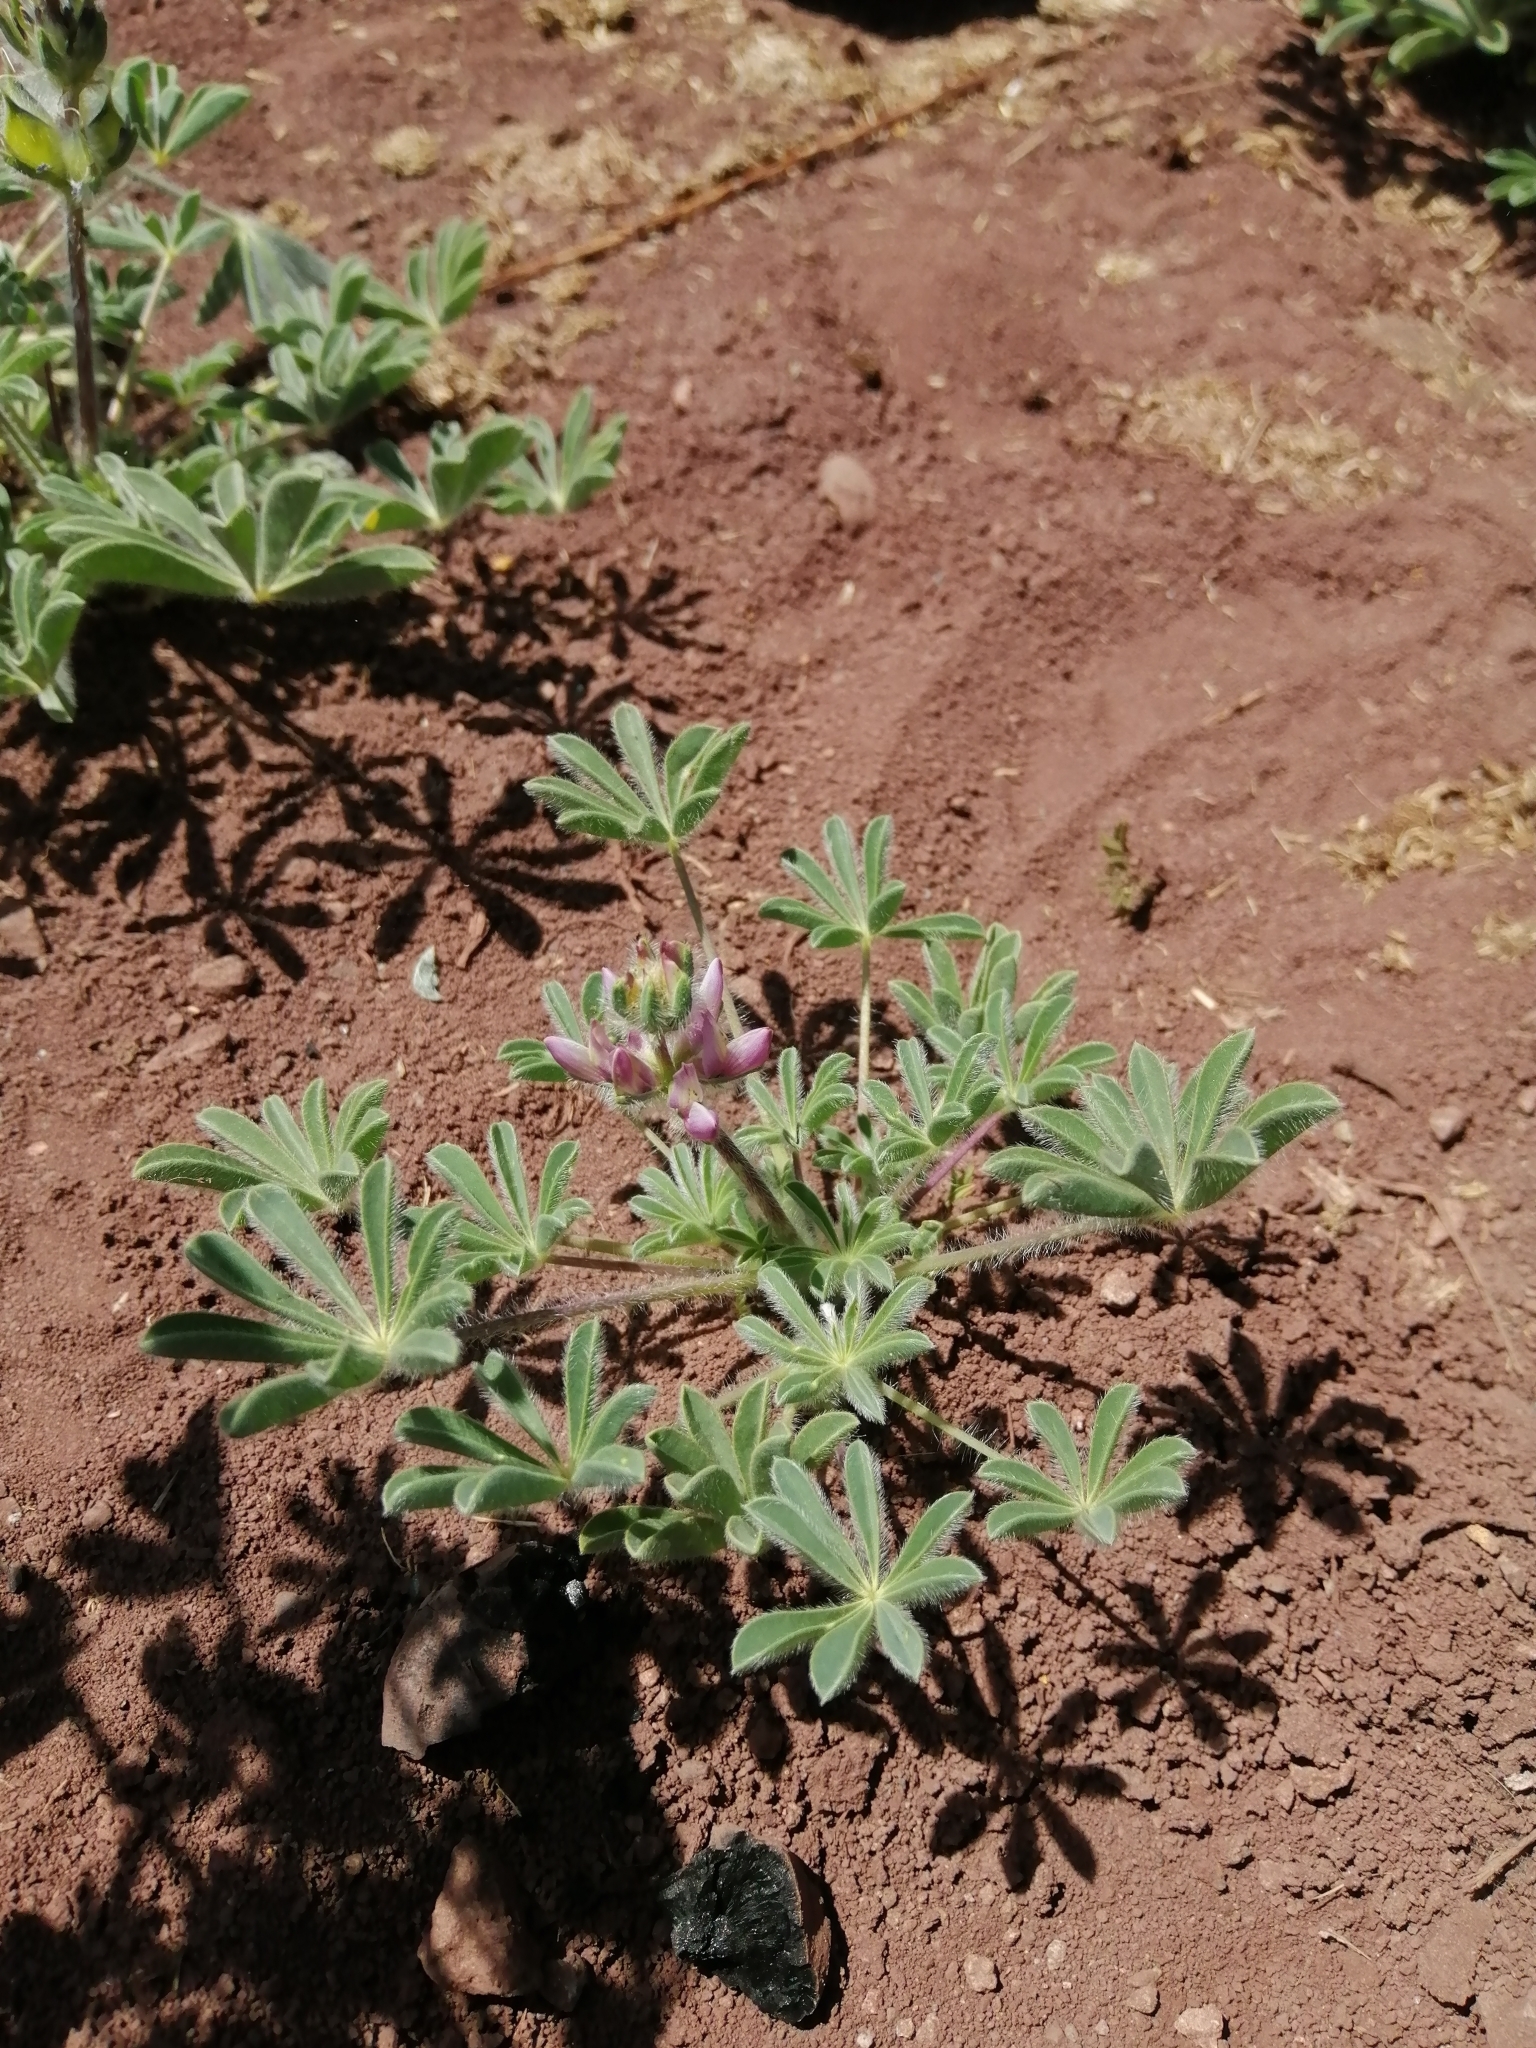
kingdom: Plantae
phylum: Tracheophyta
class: Magnoliopsida
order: Fabales
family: Fabaceae
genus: Lupinus
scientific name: Lupinus microcarpus
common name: Chick lupine
